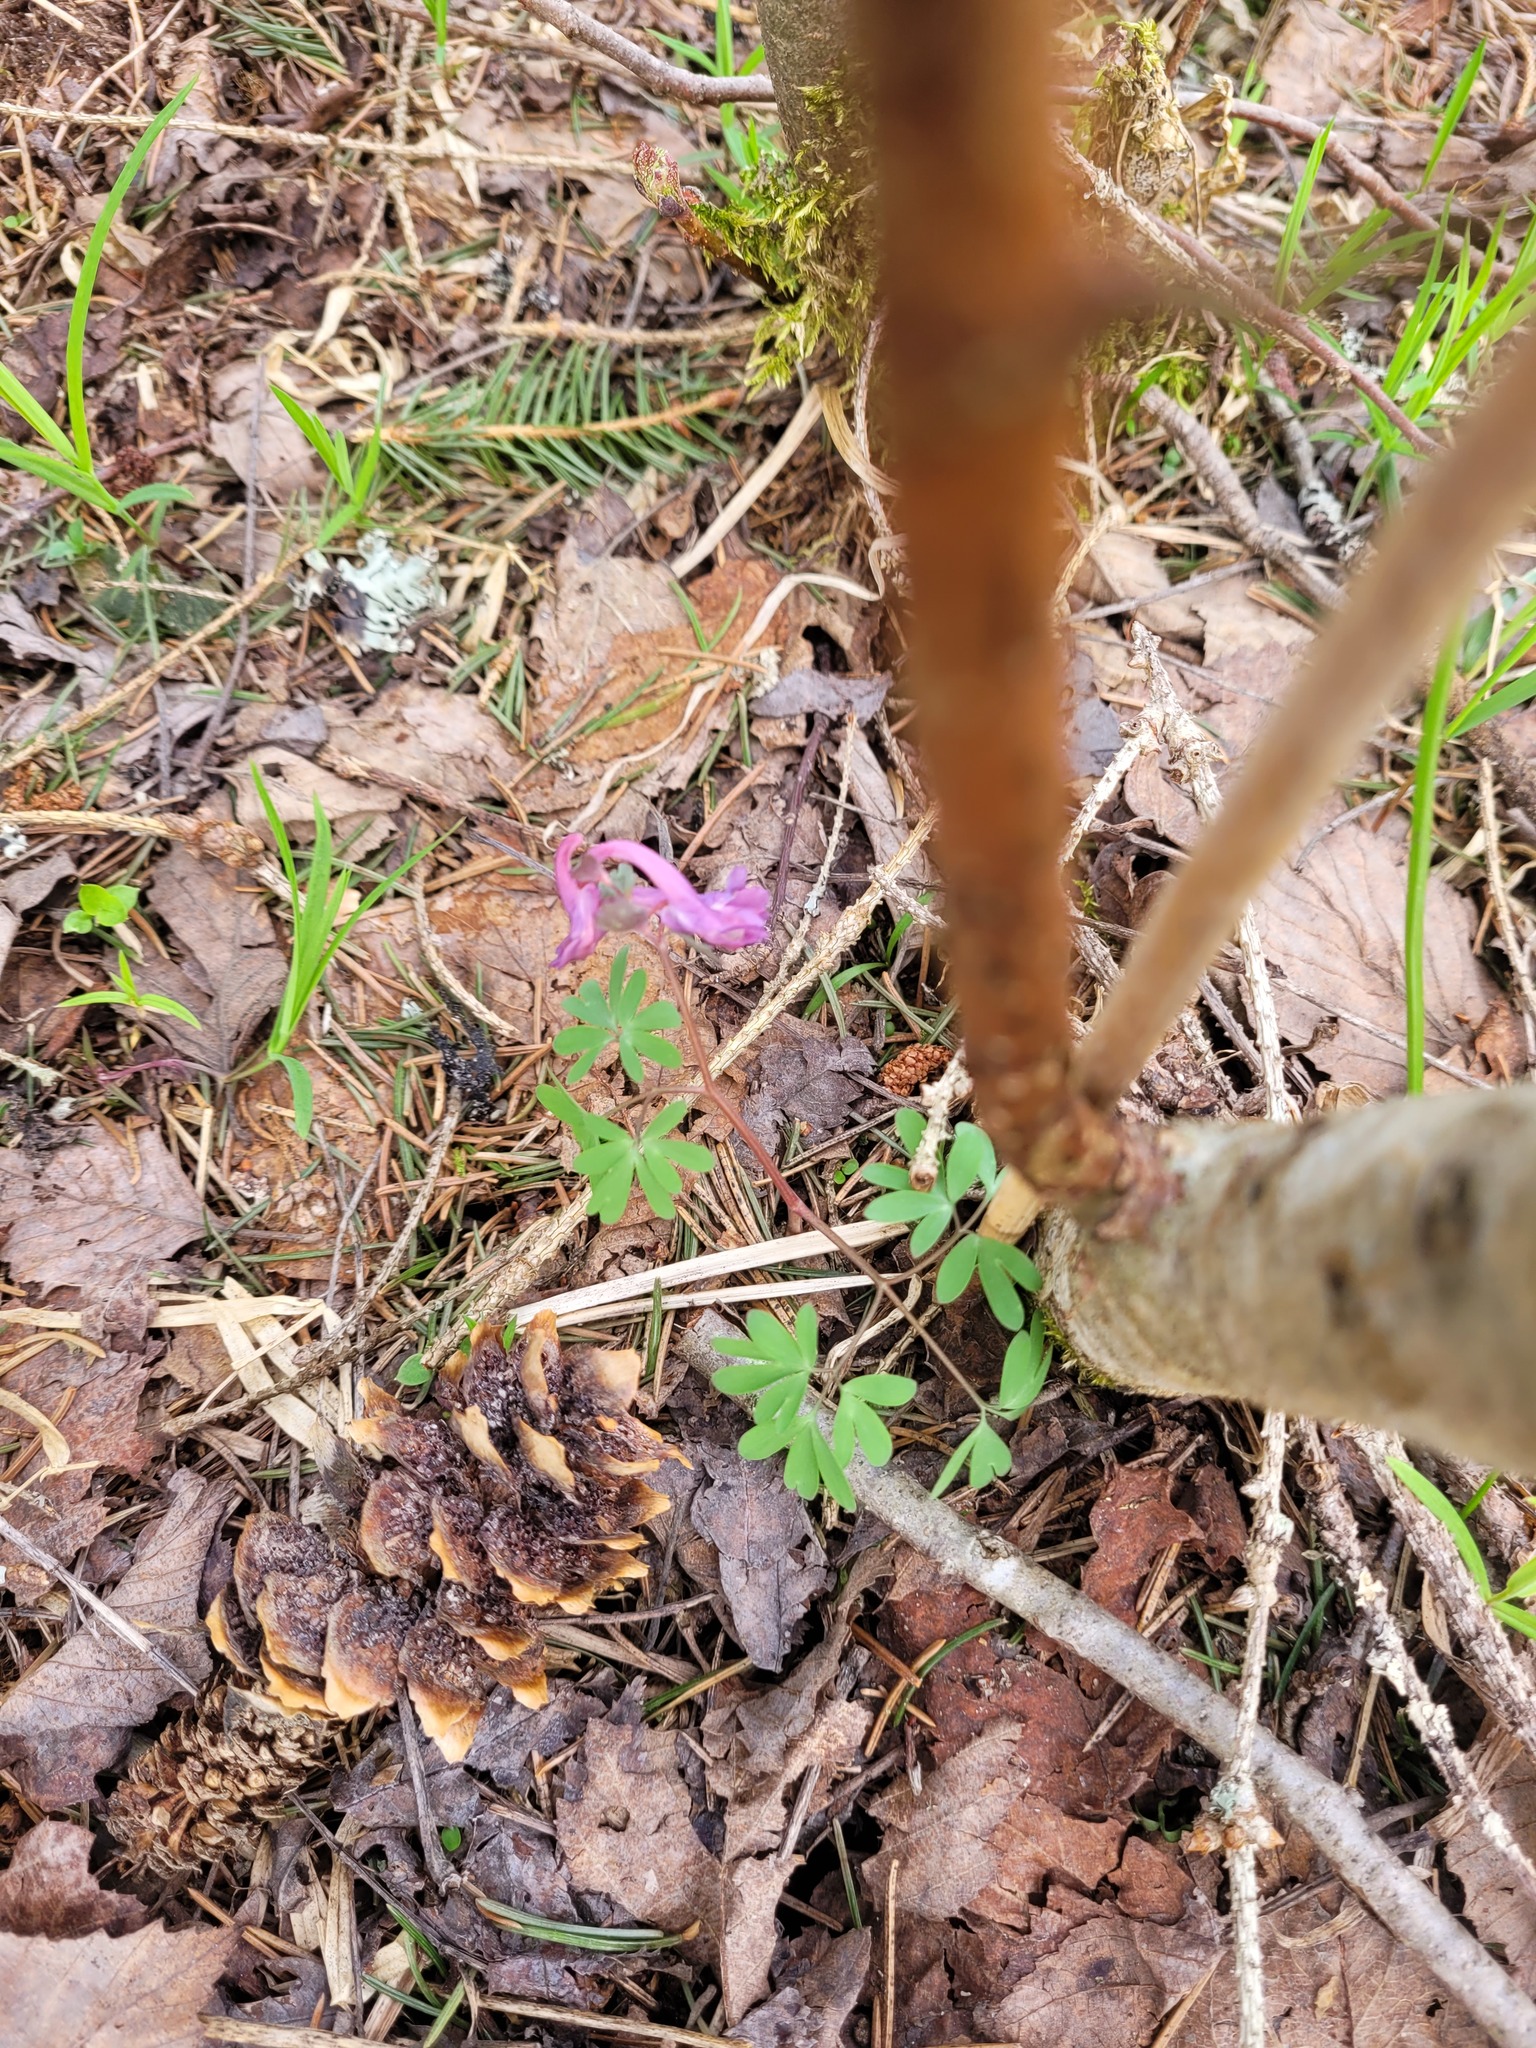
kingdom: Plantae
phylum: Tracheophyta
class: Magnoliopsida
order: Ranunculales
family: Papaveraceae
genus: Corydalis
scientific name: Corydalis solida
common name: Bird-in-a-bush
